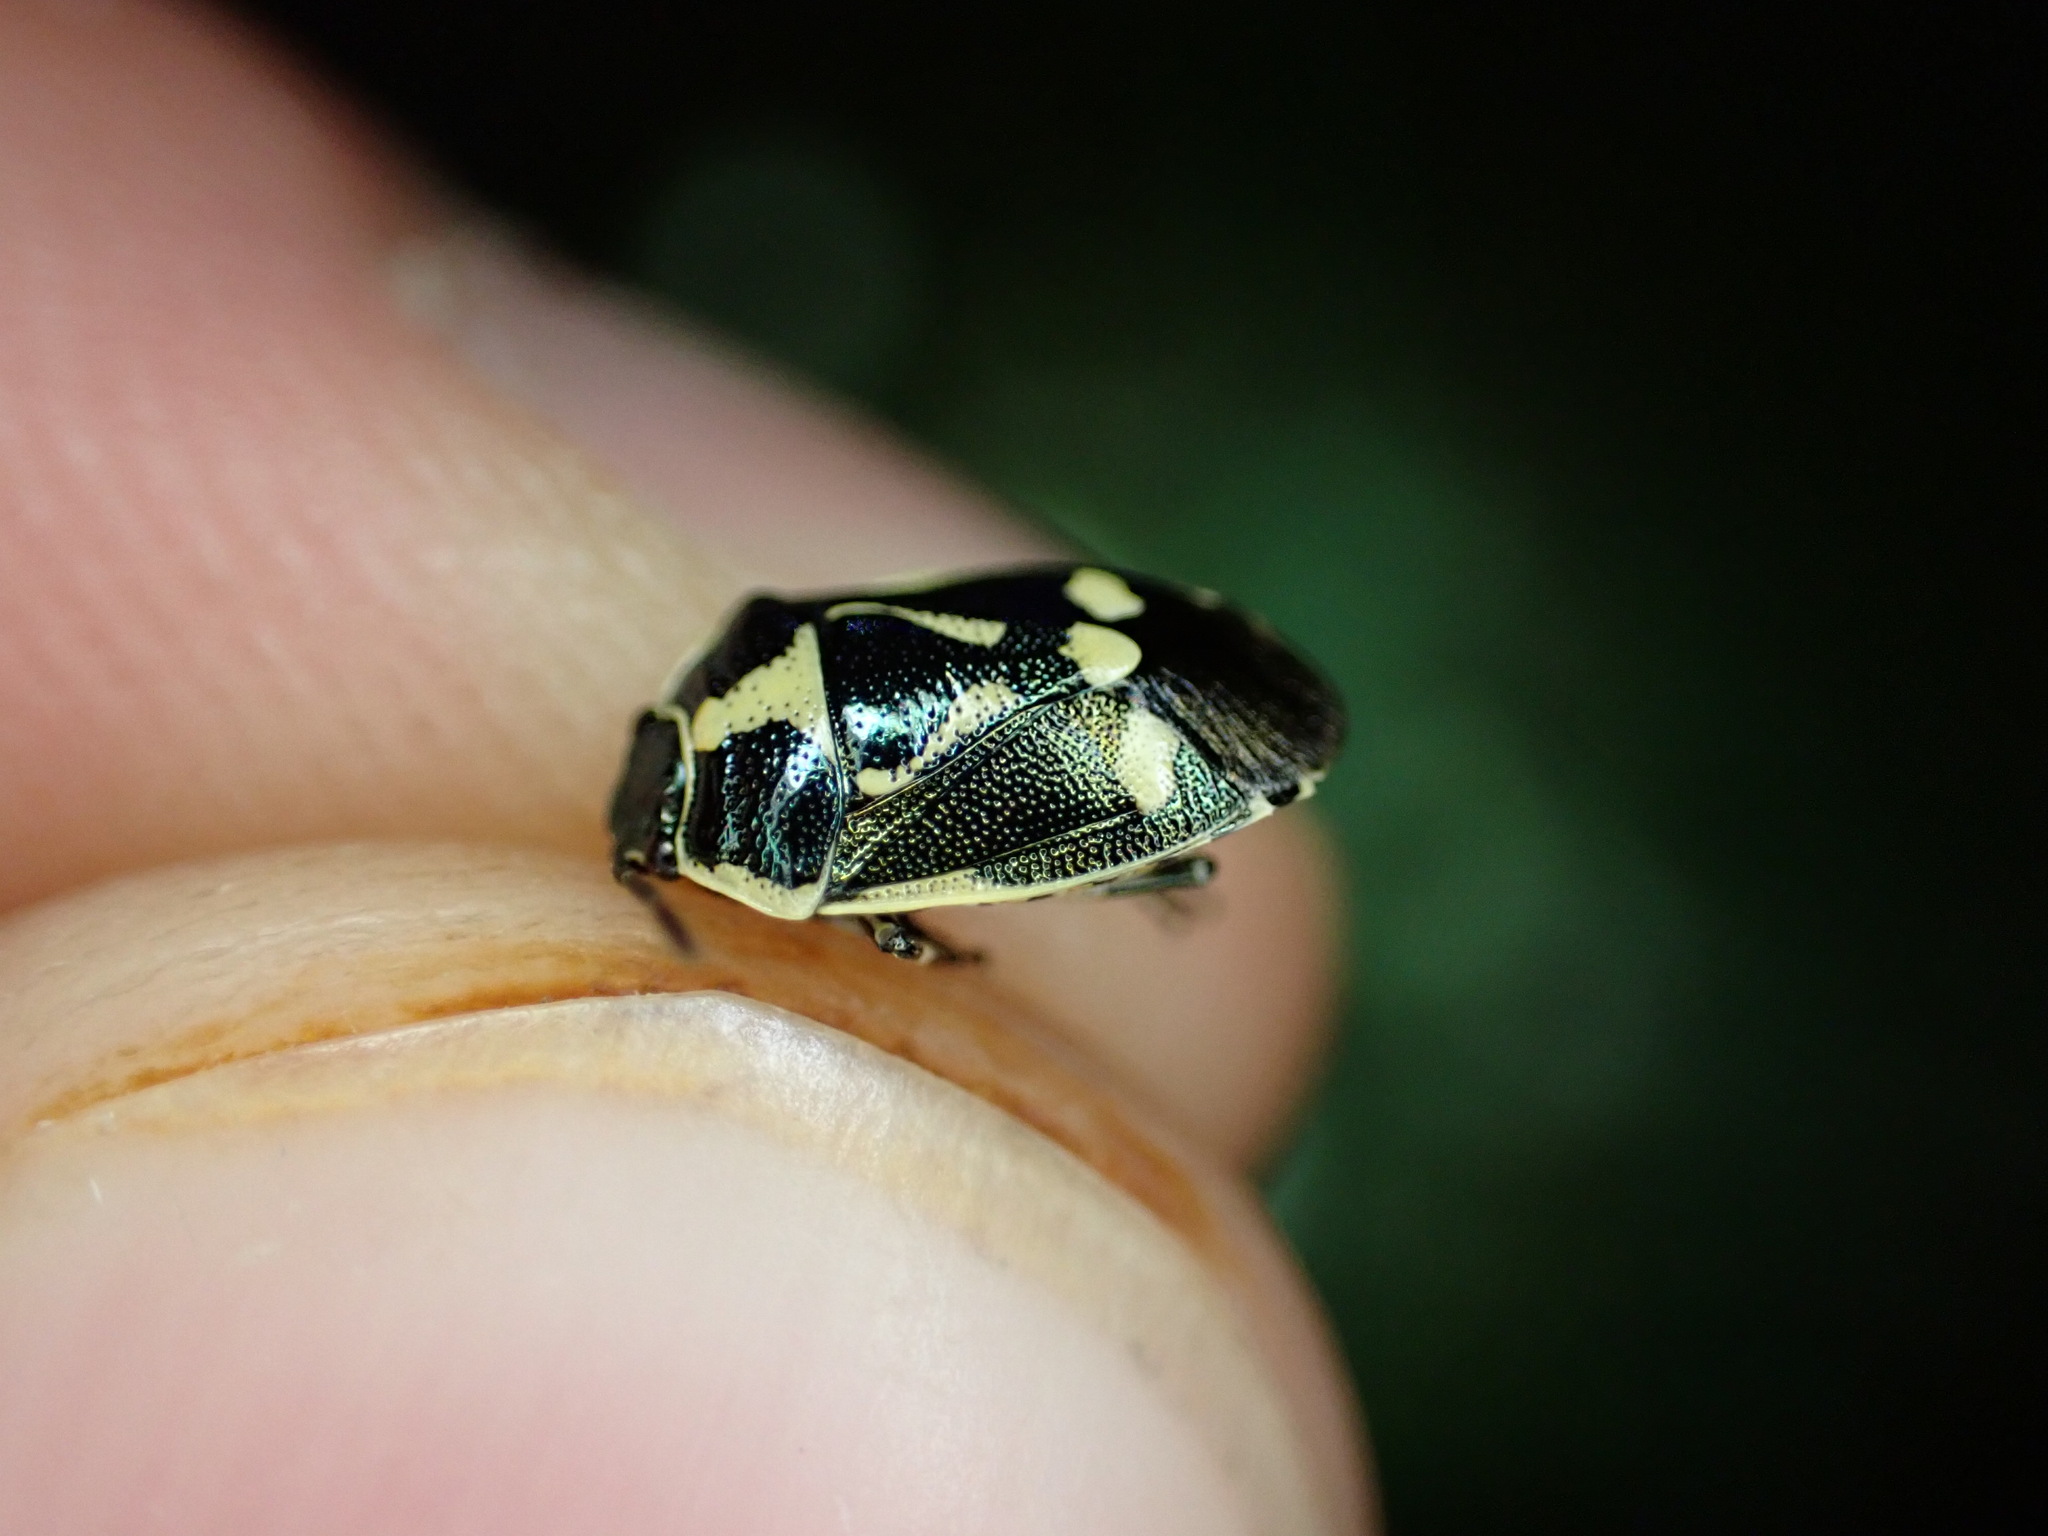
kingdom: Animalia
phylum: Arthropoda
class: Insecta
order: Hemiptera
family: Pentatomidae
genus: Eurydema
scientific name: Eurydema oleracea
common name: Cabbage bug
